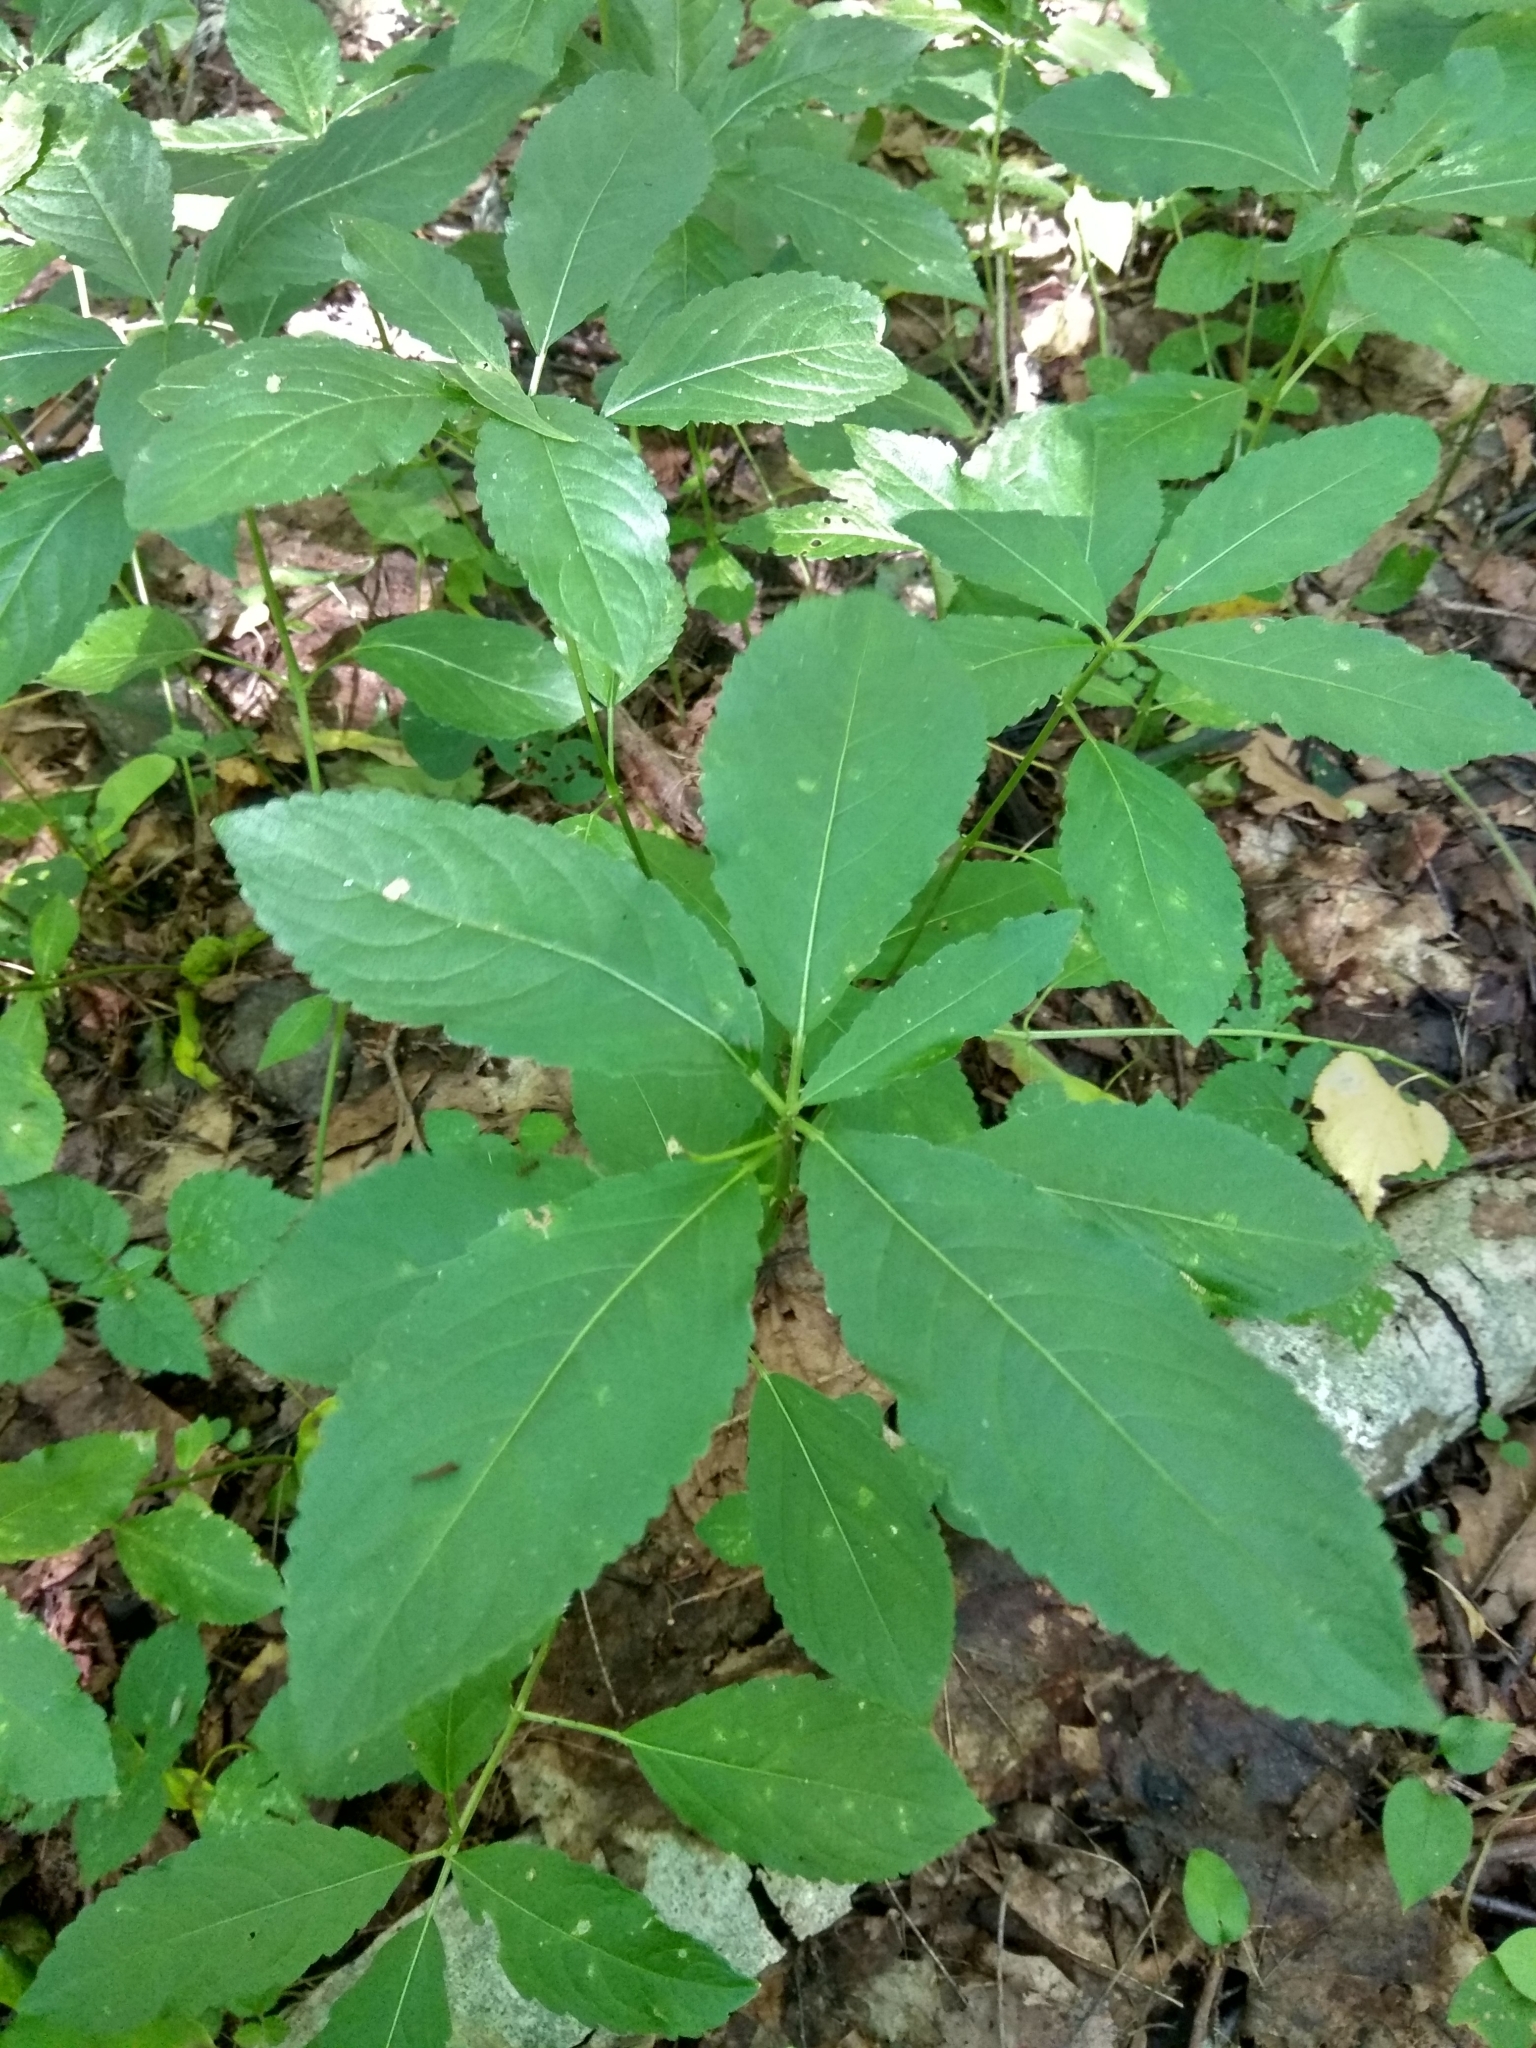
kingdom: Plantae
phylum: Tracheophyta
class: Magnoliopsida
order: Malpighiales
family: Euphorbiaceae
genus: Mercurialis
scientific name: Mercurialis perennis
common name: Dog mercury
